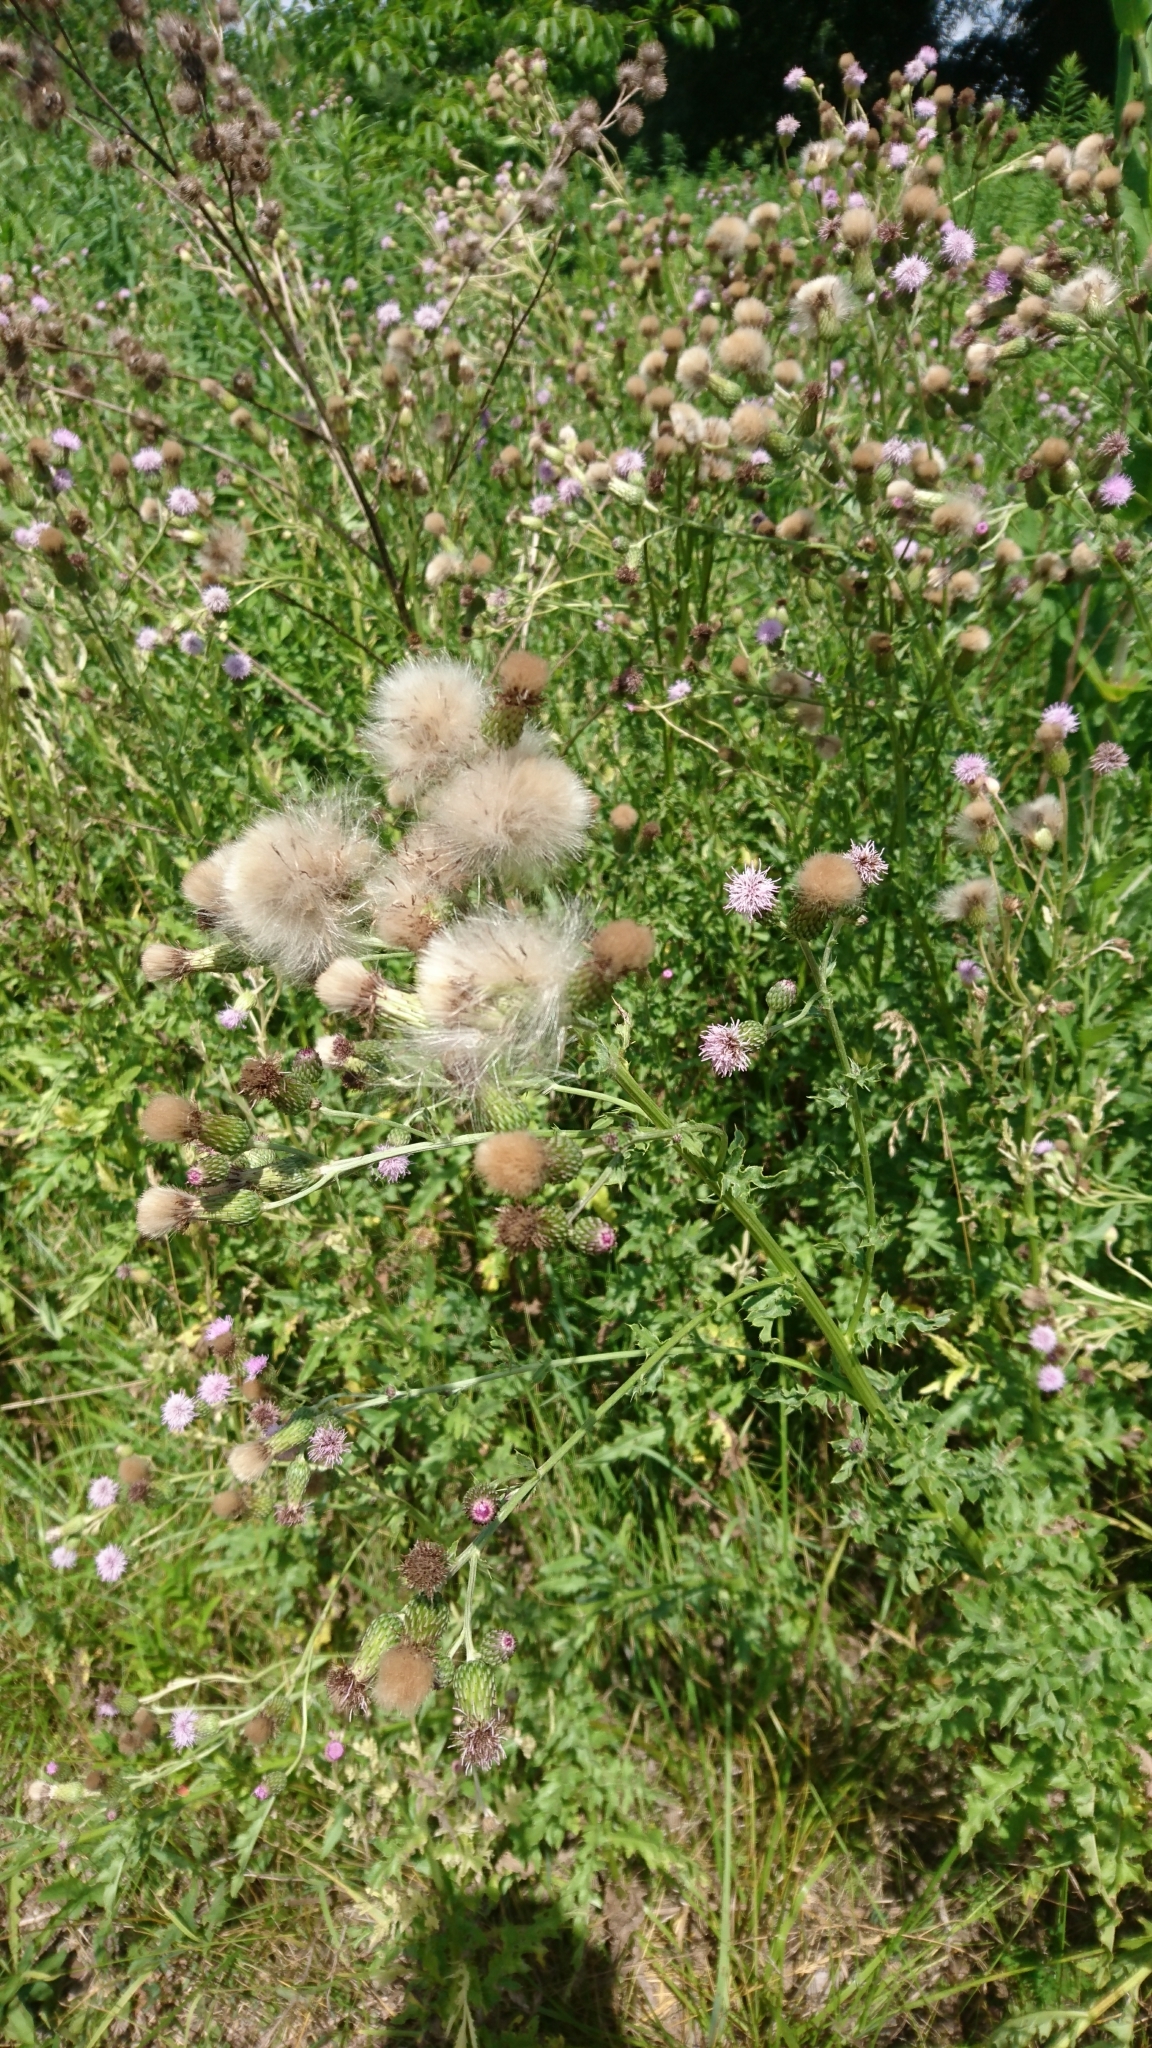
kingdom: Plantae
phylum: Tracheophyta
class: Magnoliopsida
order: Asterales
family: Asteraceae
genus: Cirsium
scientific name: Cirsium arvense
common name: Creeping thistle
